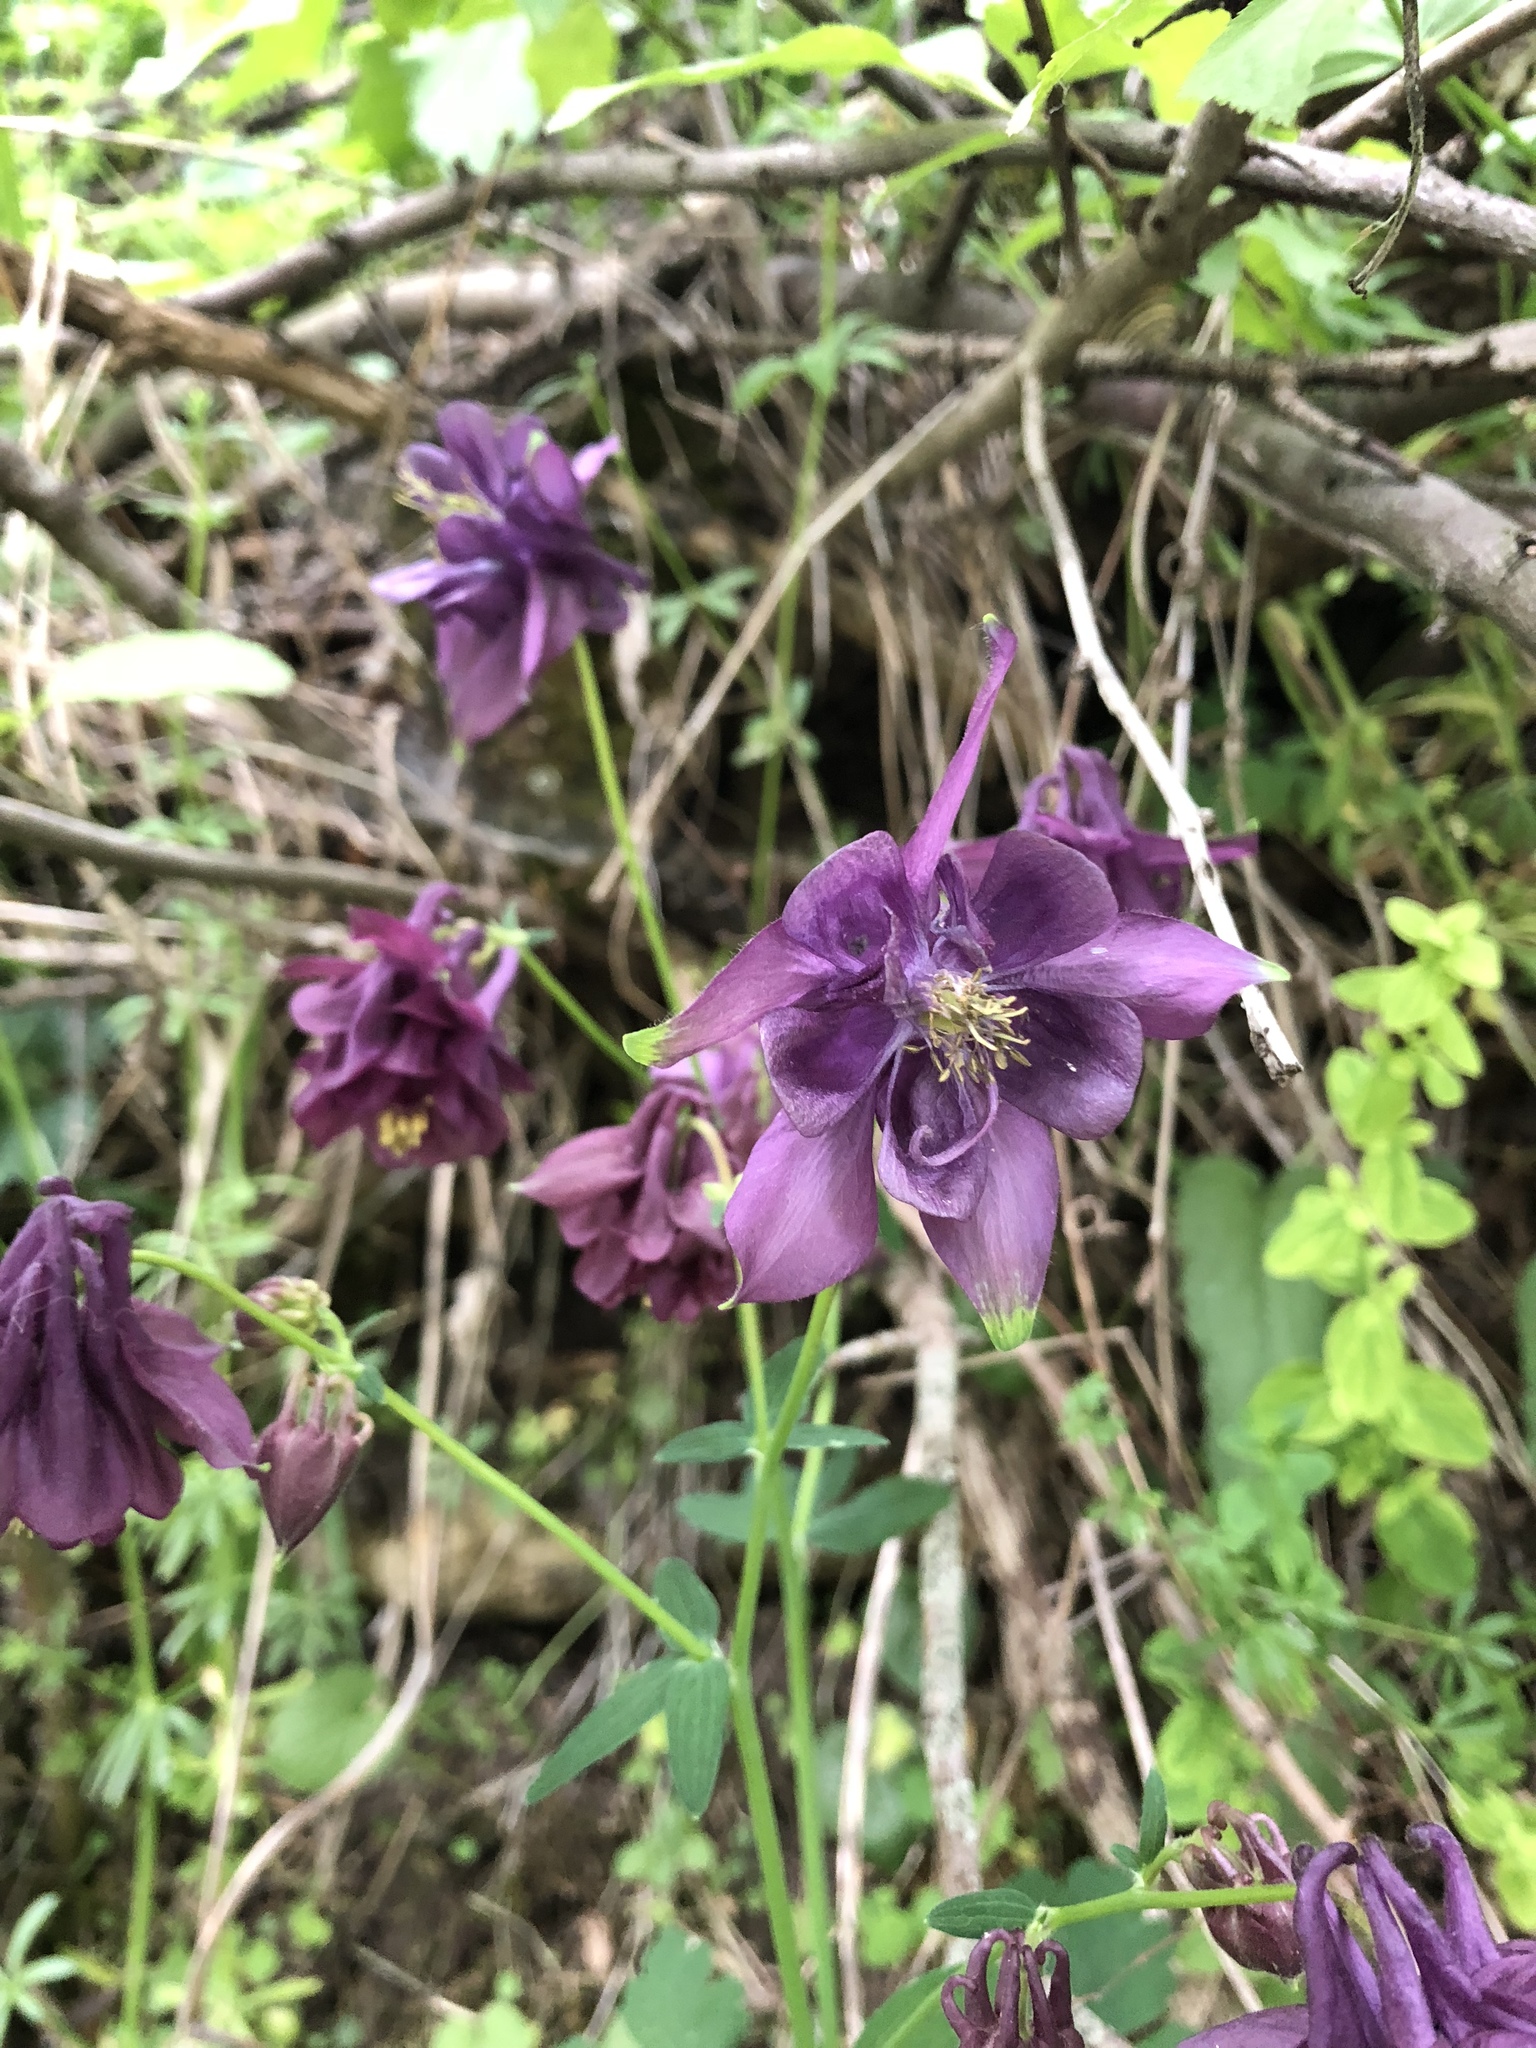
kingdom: Plantae
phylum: Tracheophyta
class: Magnoliopsida
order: Ranunculales
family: Ranunculaceae
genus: Aquilegia
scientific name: Aquilegia atrata
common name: Dark columbine
